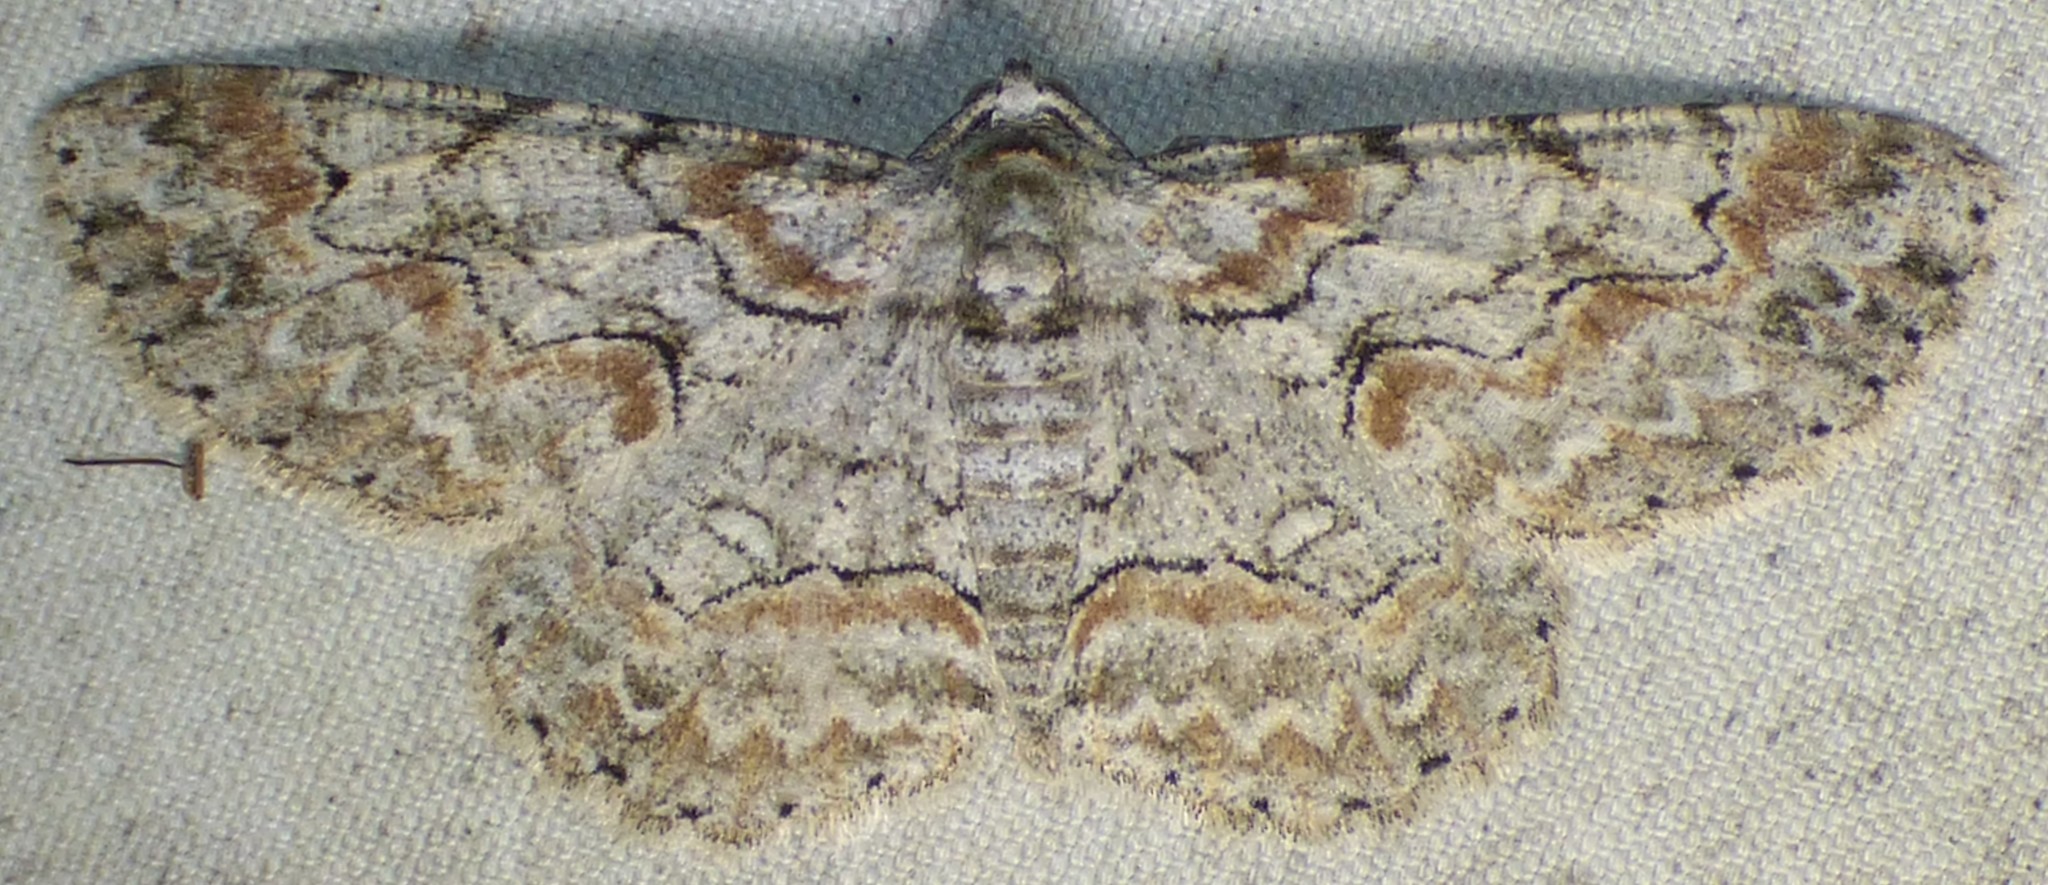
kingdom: Animalia
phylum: Arthropoda
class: Insecta
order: Lepidoptera
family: Geometridae
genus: Iridopsis
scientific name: Iridopsis defectaria
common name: Brown-shaded gray
